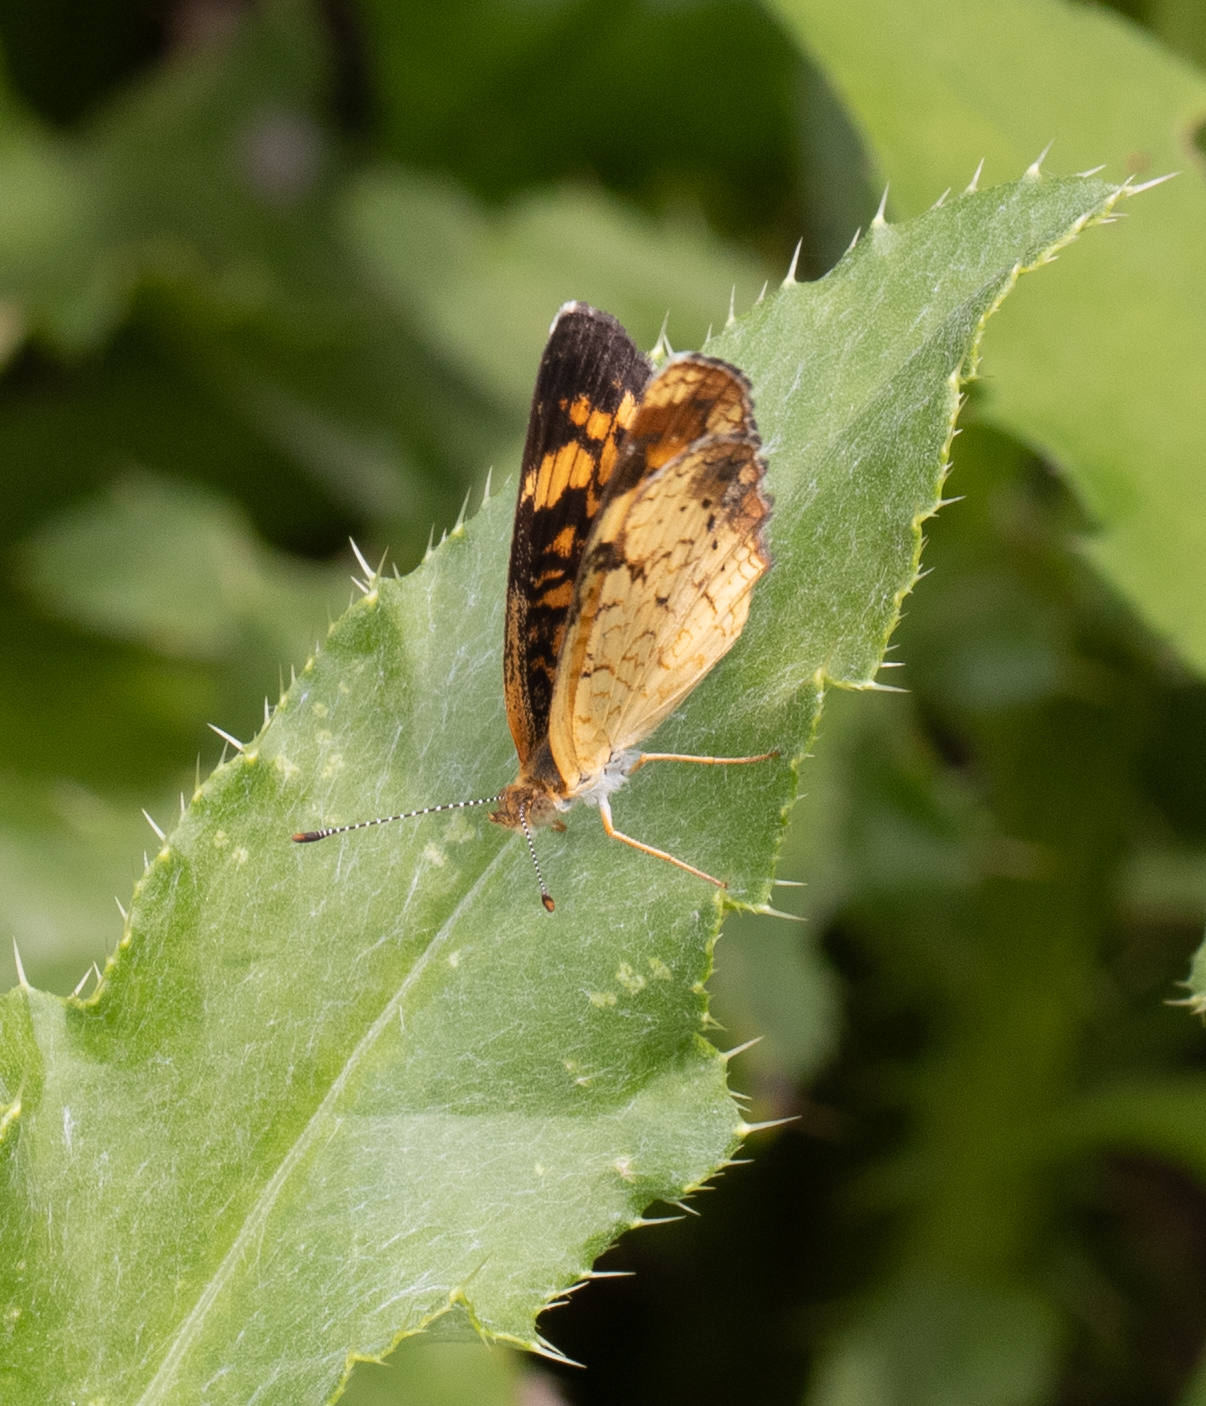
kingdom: Animalia
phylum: Arthropoda
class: Insecta
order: Lepidoptera
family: Nymphalidae
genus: Phyciodes
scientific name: Phyciodes tharos
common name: Pearl crescent
